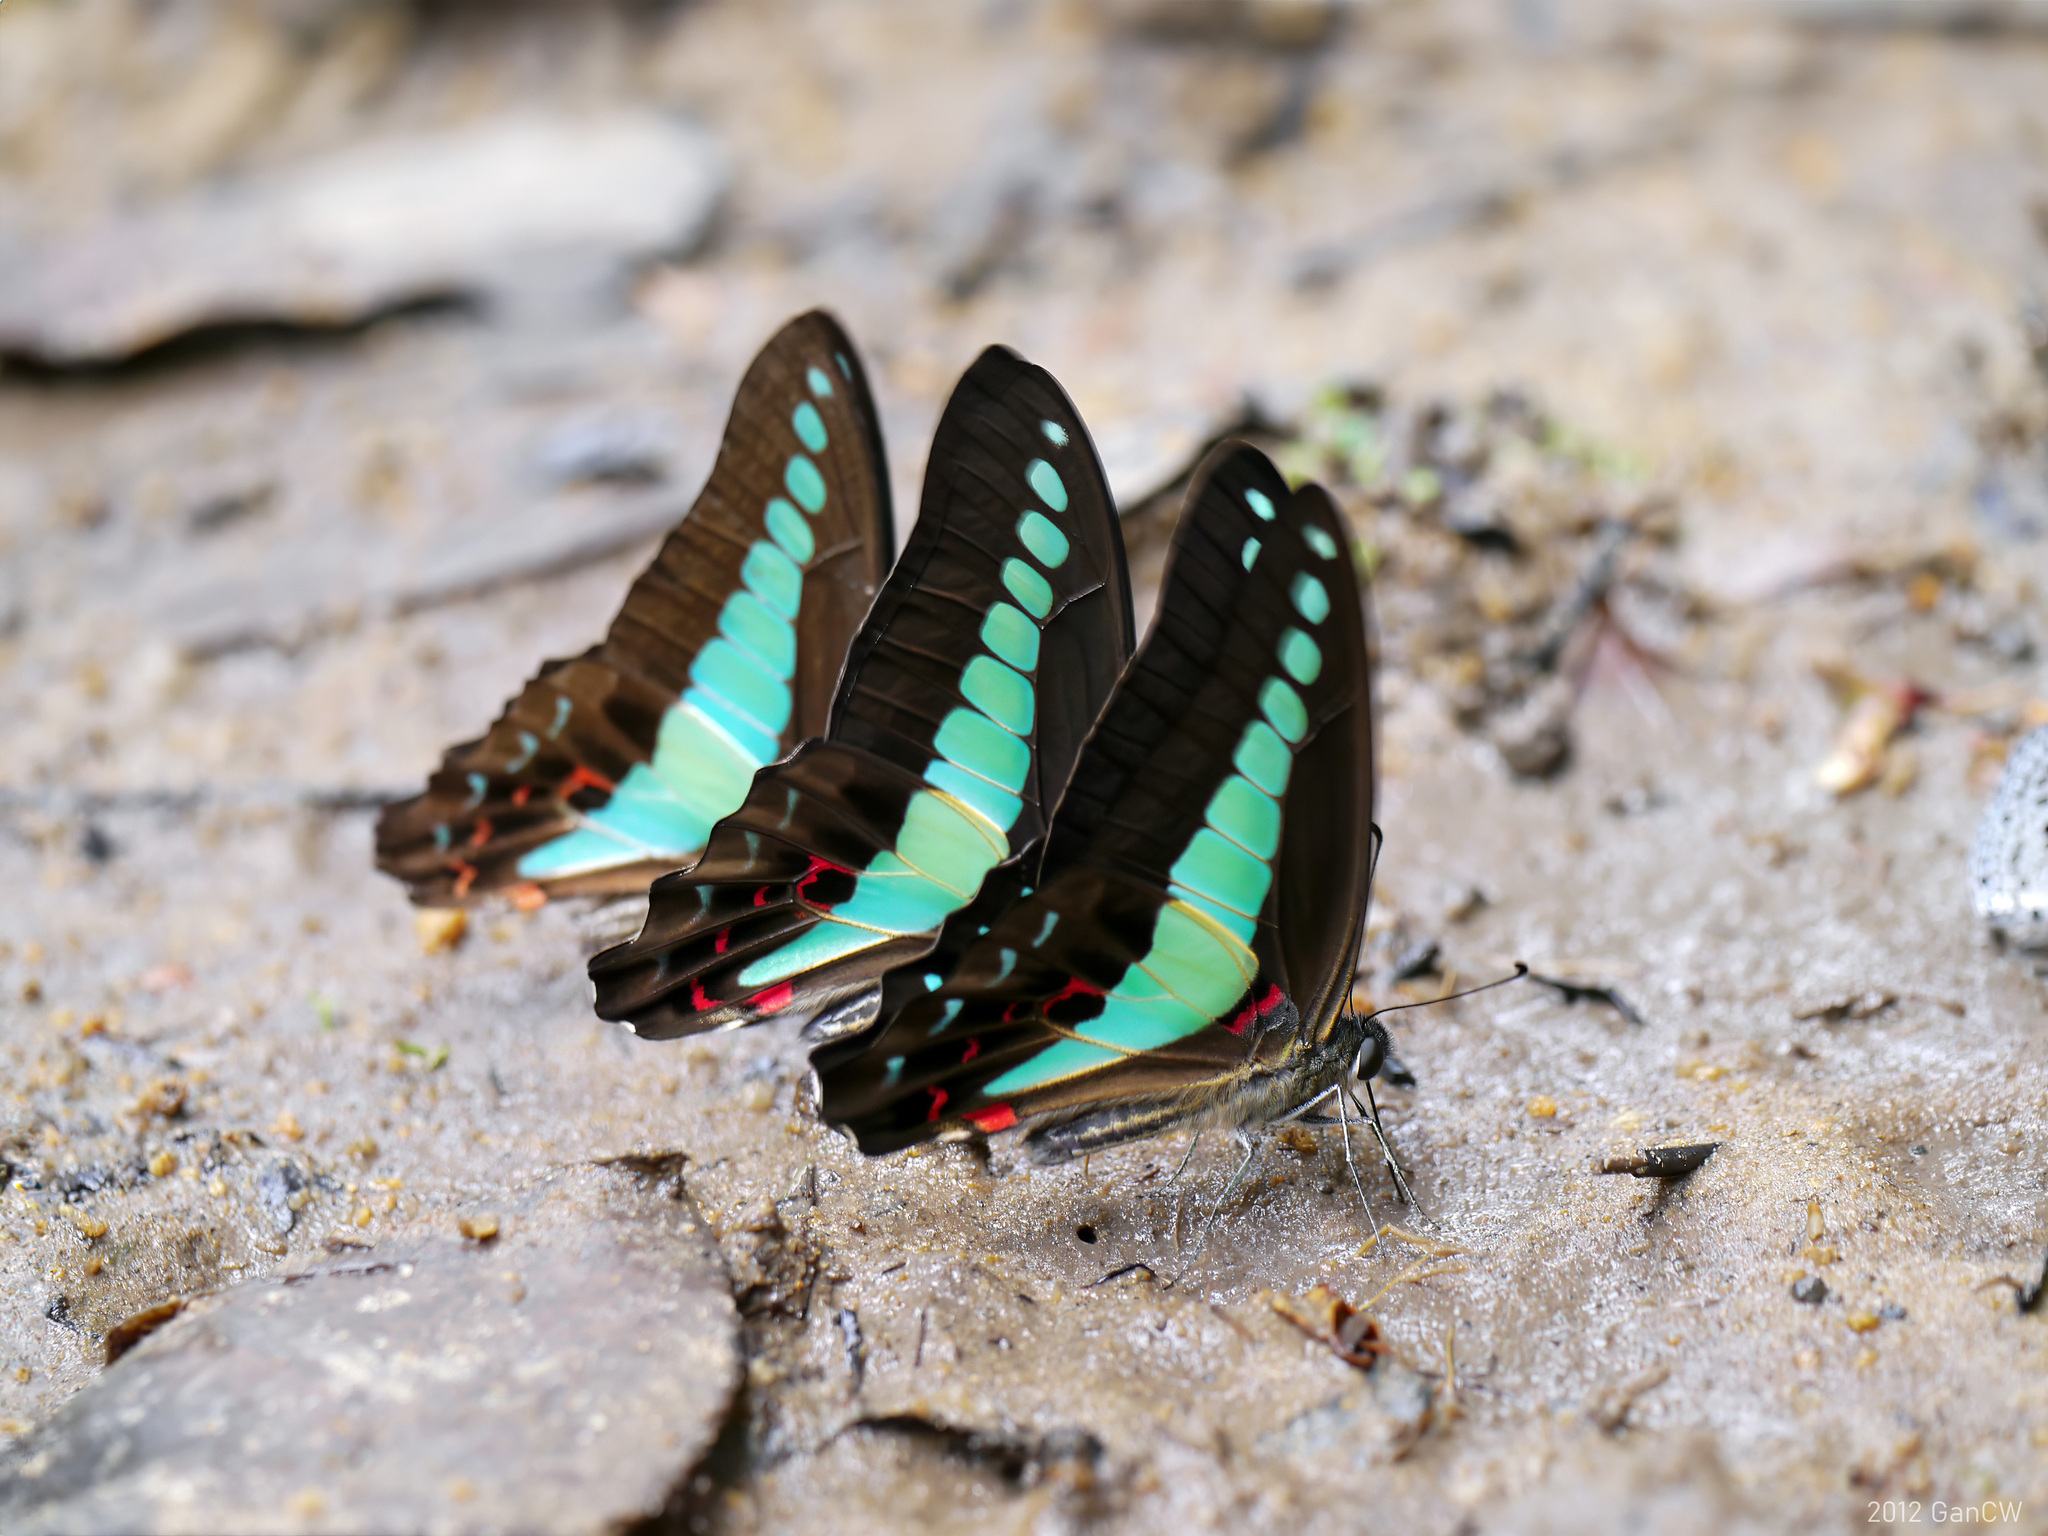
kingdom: Fungi
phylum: Ascomycota
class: Sordariomycetes
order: Microascales
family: Microascaceae
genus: Graphium
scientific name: Graphium sarpedon
